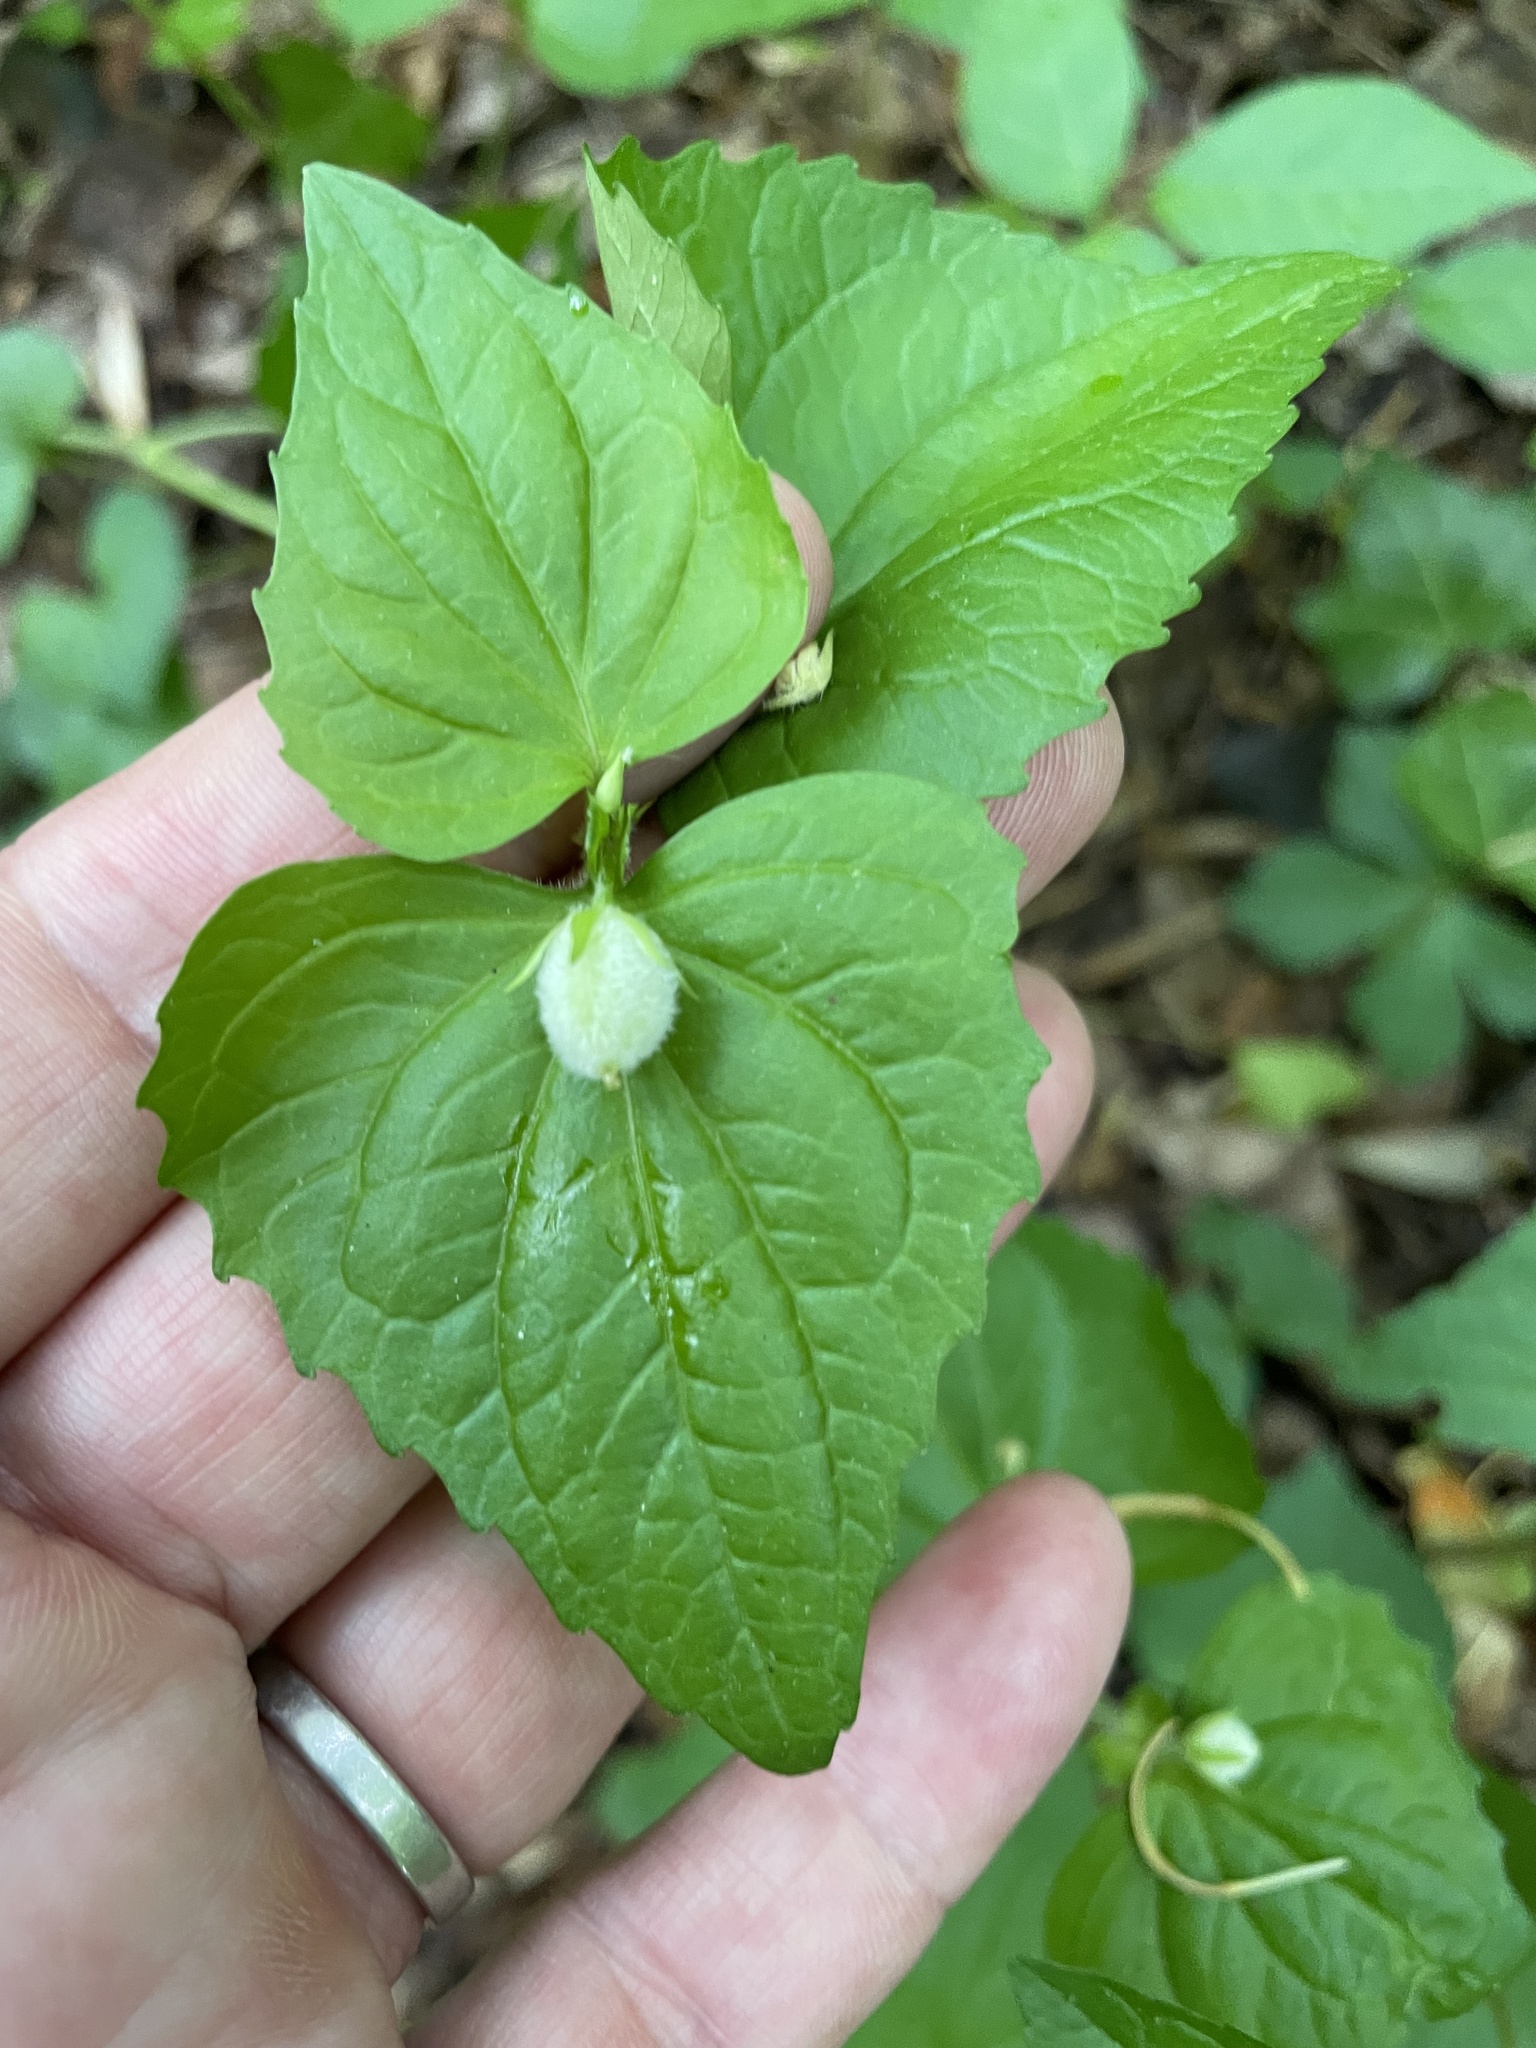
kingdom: Plantae
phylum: Tracheophyta
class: Magnoliopsida
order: Malpighiales
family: Violaceae
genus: Viola
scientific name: Viola eriocarpa
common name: Smooth yellow violet
